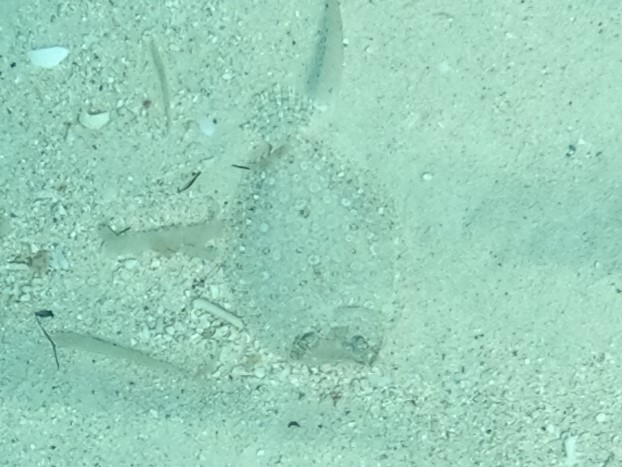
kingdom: Animalia
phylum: Chordata
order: Pleuronectiformes
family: Bothidae
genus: Bothus
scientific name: Bothus lunatus
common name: Peacock flounder
